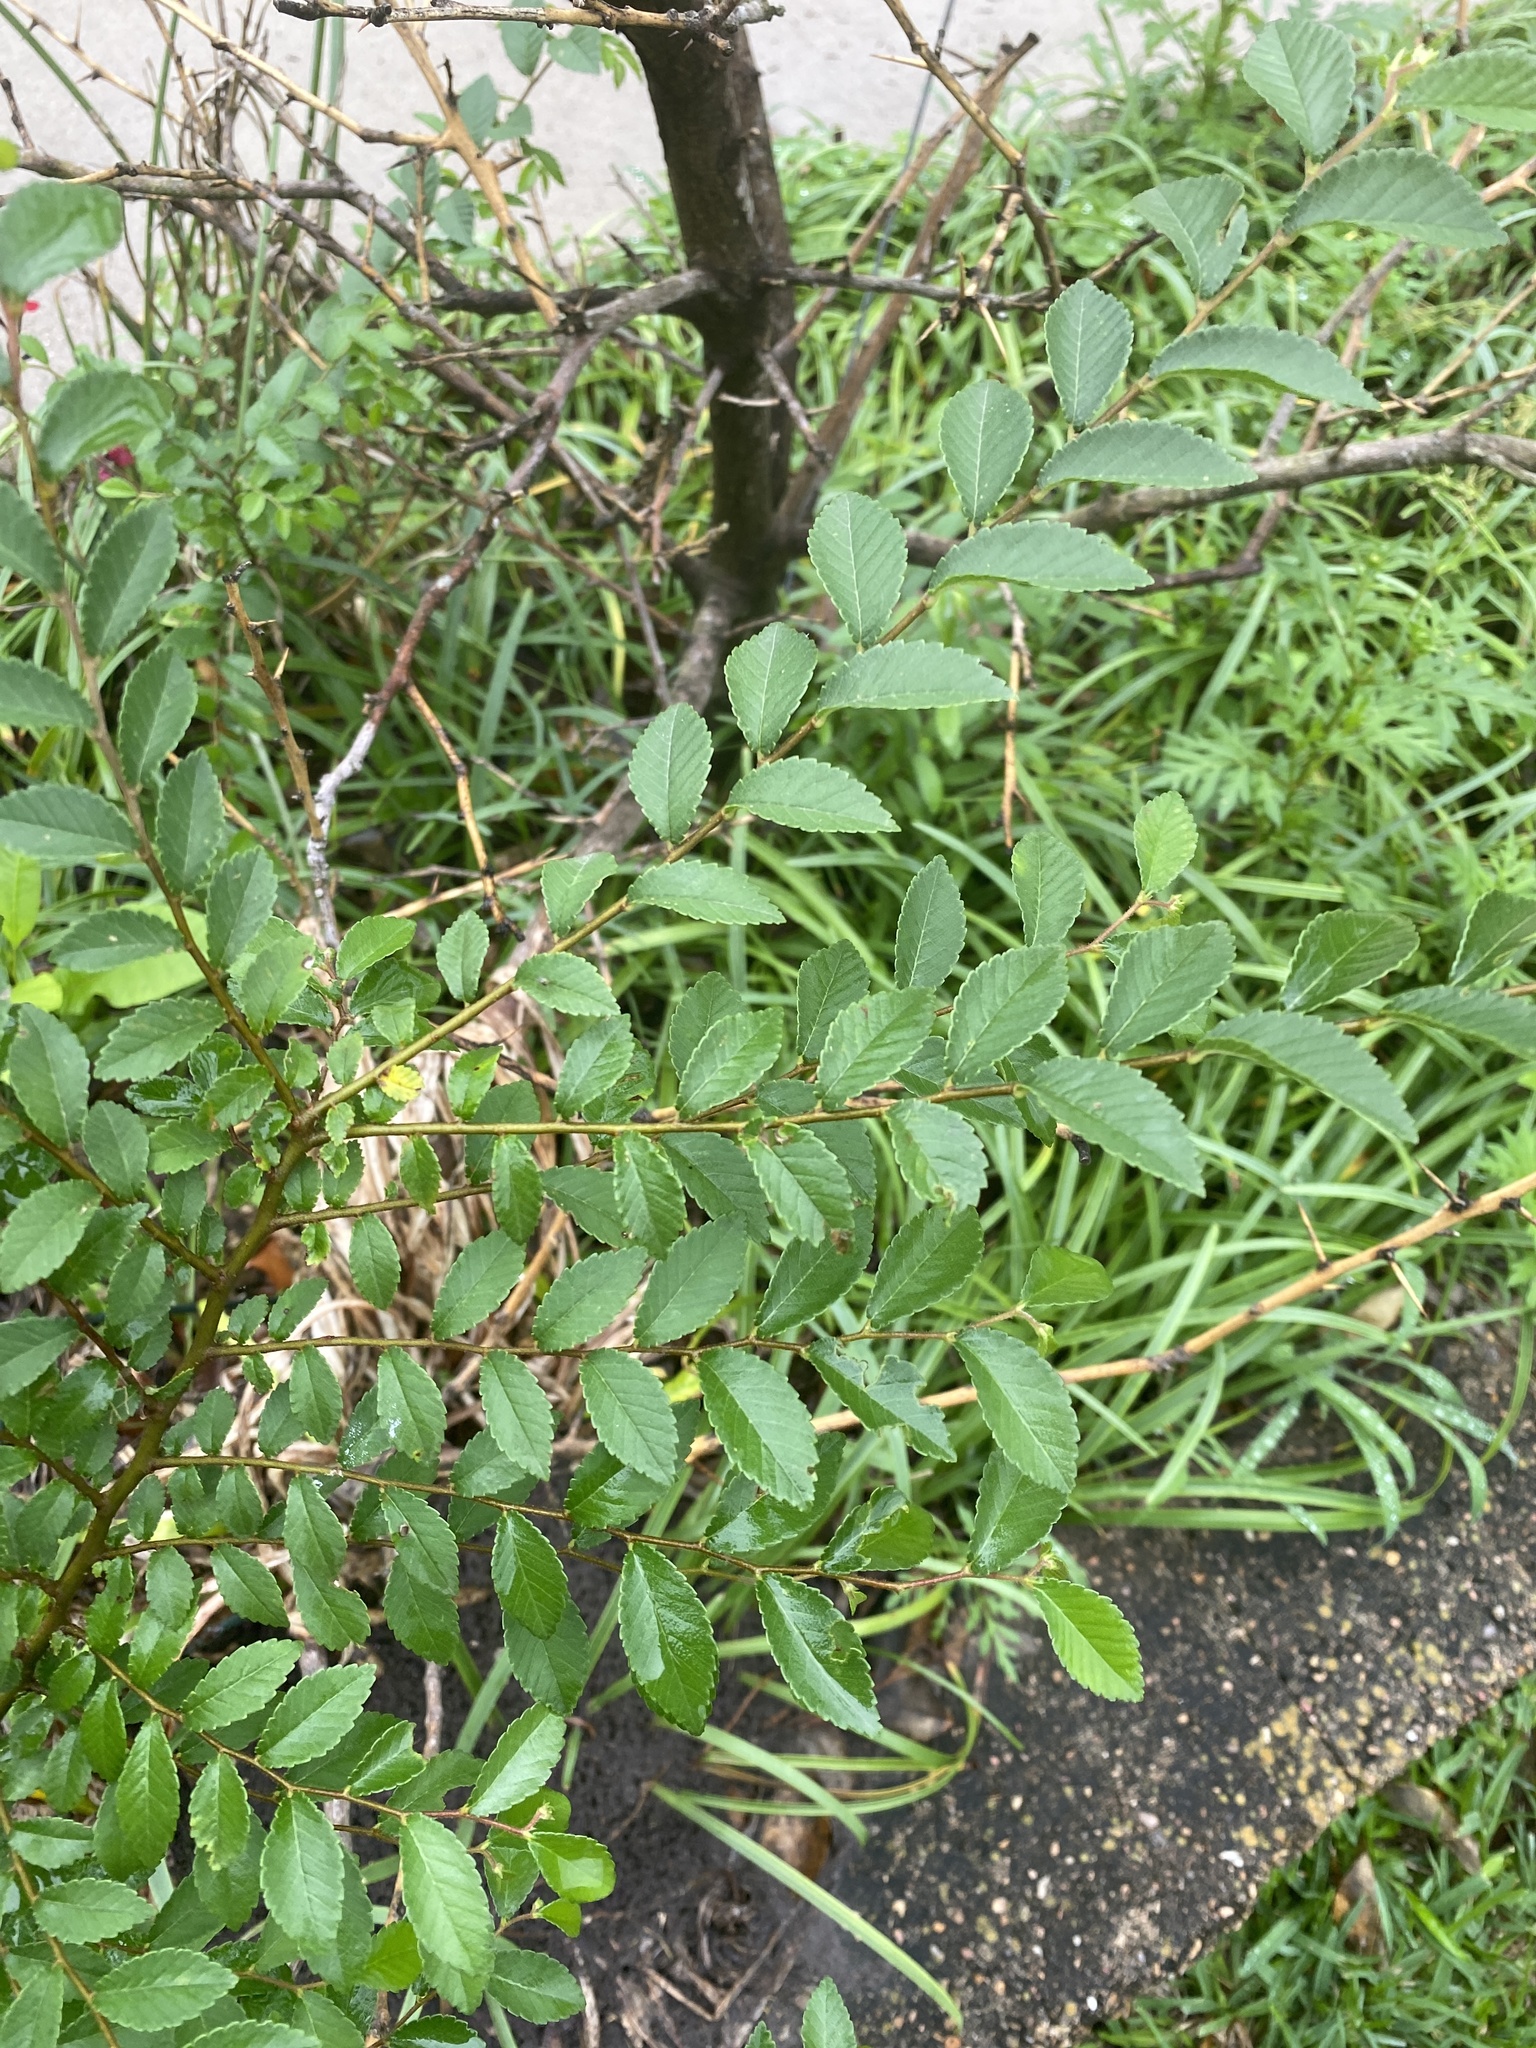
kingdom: Plantae
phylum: Tracheophyta
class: Magnoliopsida
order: Rosales
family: Ulmaceae
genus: Ulmus
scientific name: Ulmus parvifolia
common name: Chinese elm
